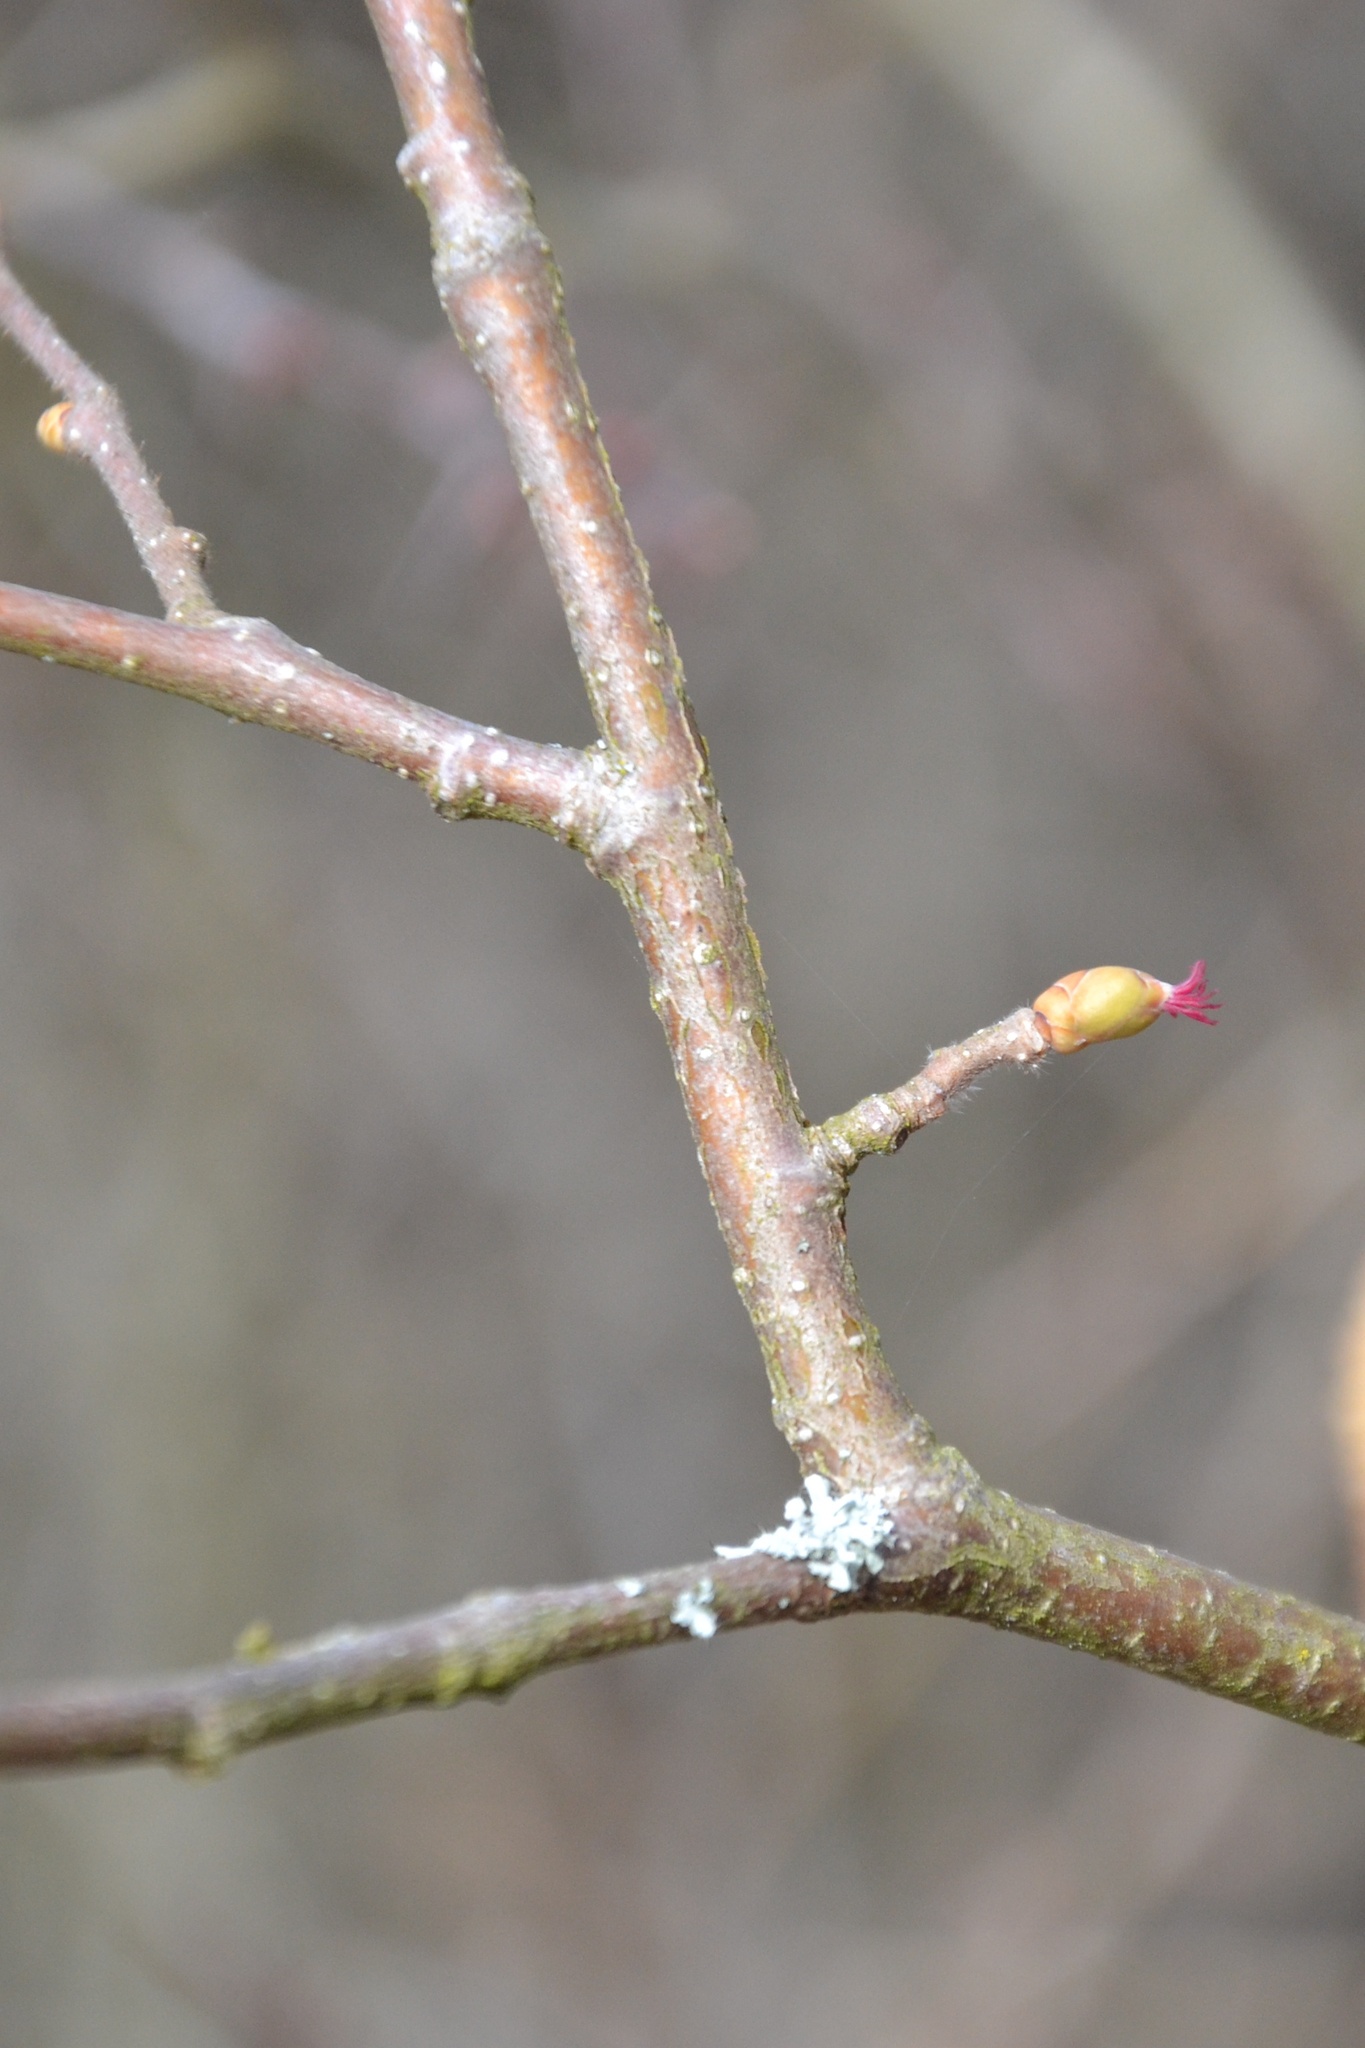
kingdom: Plantae
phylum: Tracheophyta
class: Magnoliopsida
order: Fagales
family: Betulaceae
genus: Corylus
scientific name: Corylus avellana
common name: European hazel
